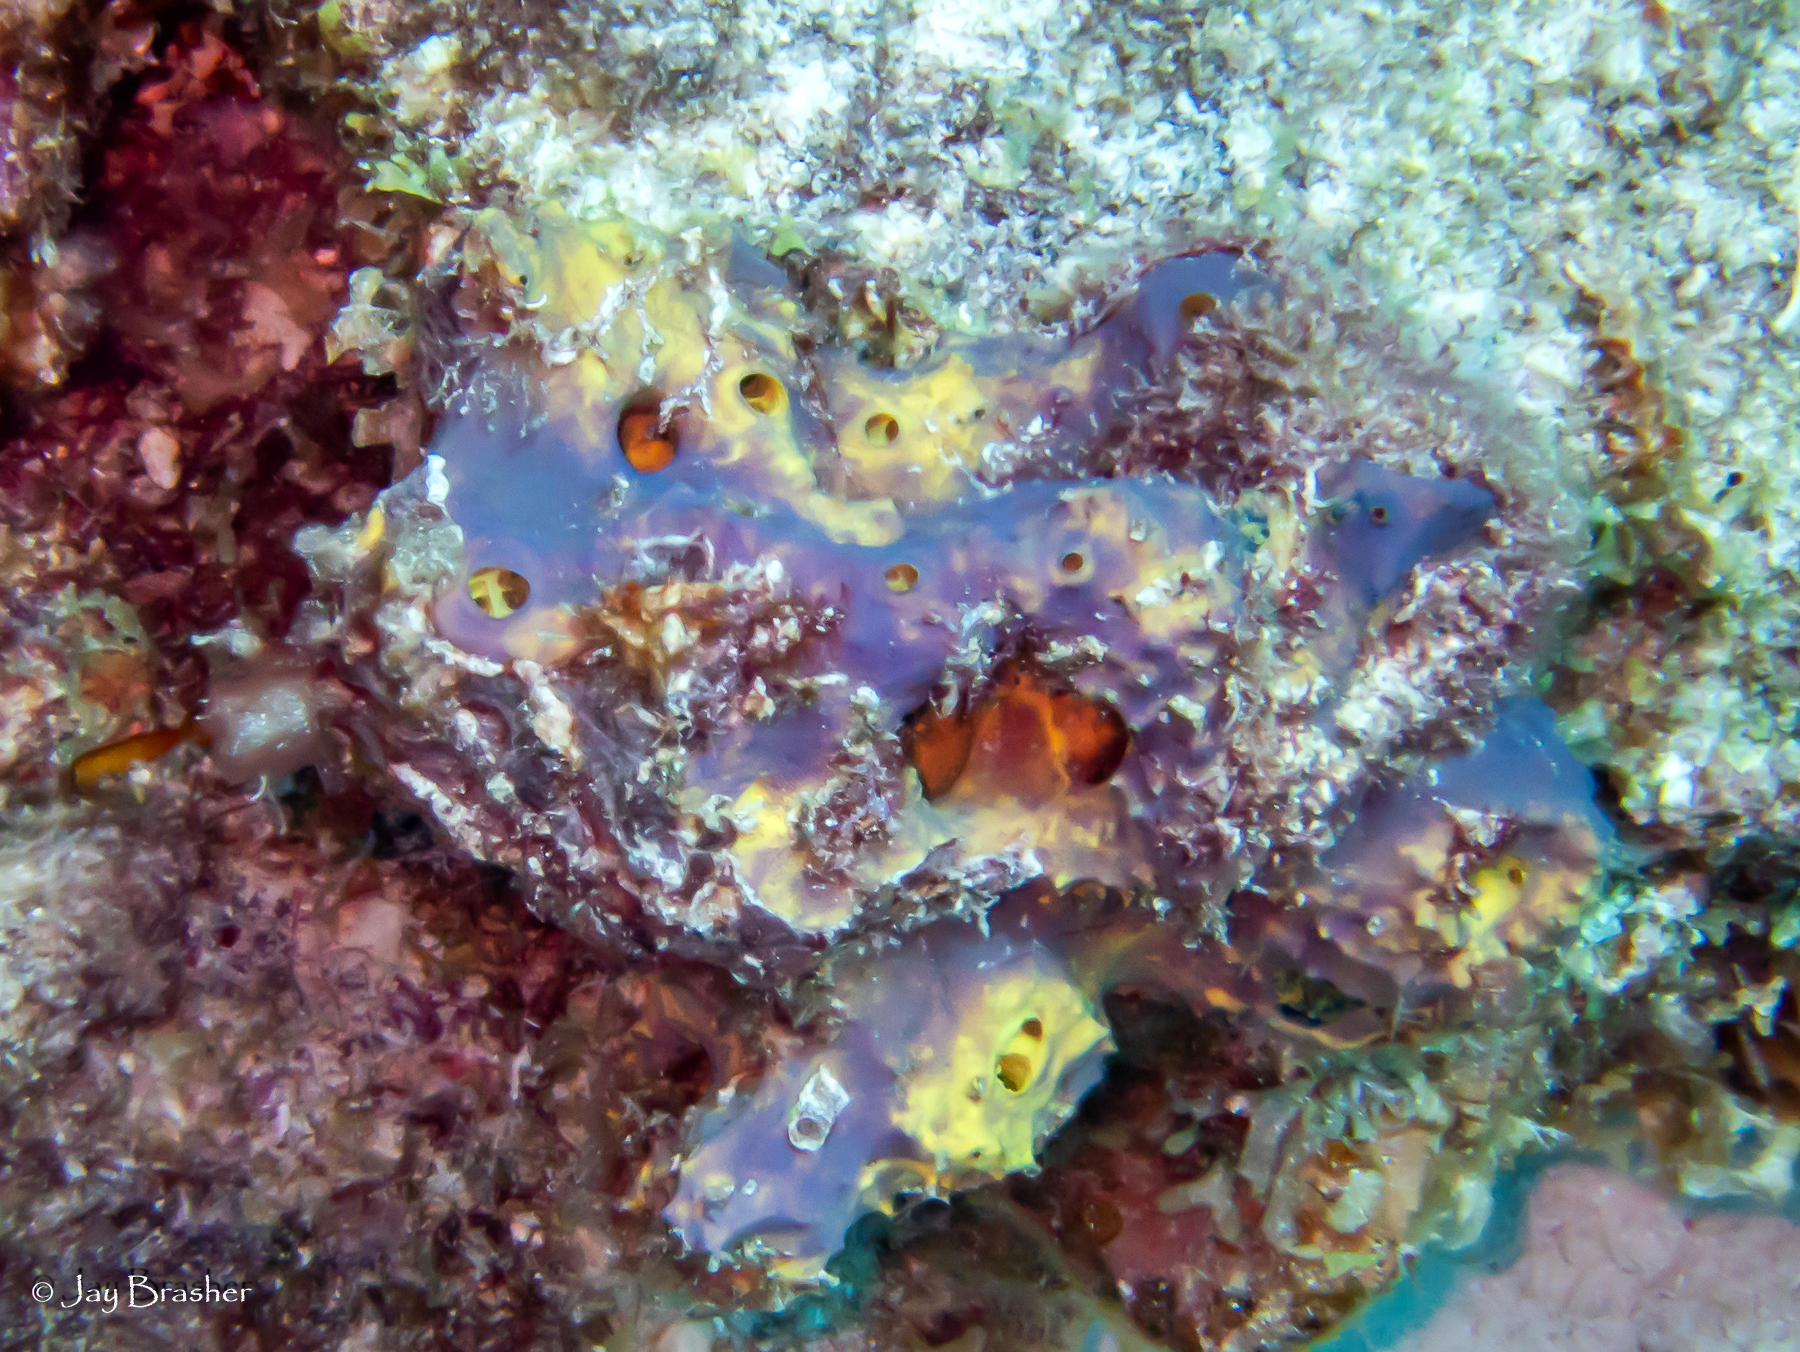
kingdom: Animalia
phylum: Porifera
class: Demospongiae
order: Verongiida
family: Aplysinidae
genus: Aiolochroia
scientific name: Aiolochroia crassa
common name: Branching tube sponge
